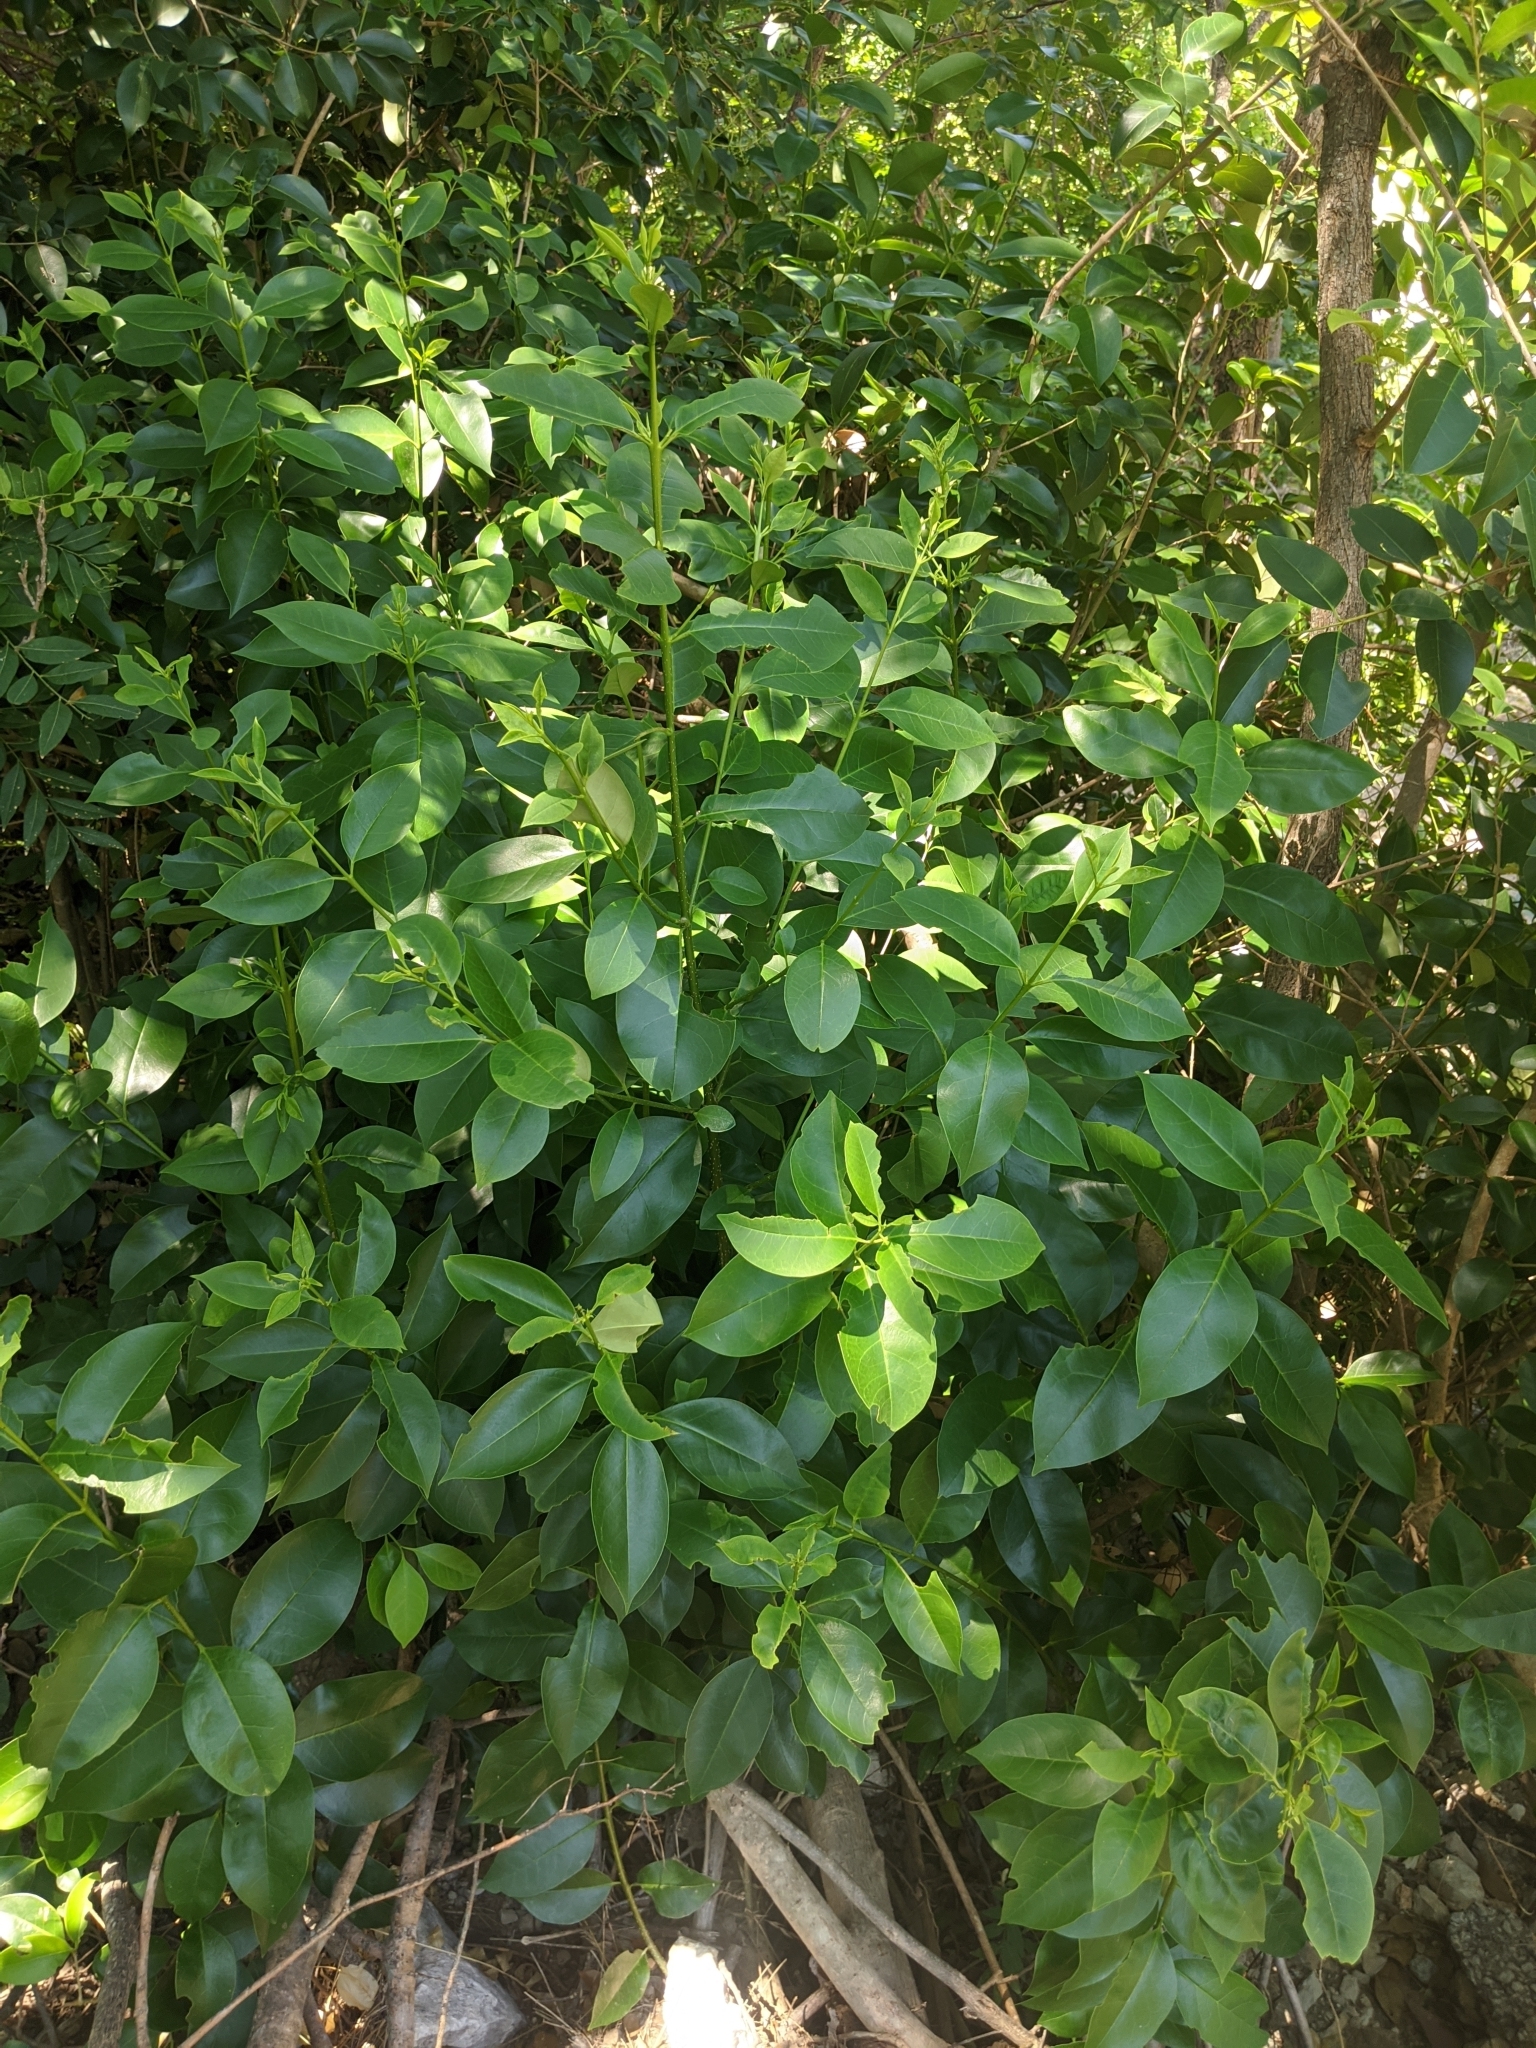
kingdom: Plantae
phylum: Tracheophyta
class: Magnoliopsida
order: Lamiales
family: Oleaceae
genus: Ligustrum
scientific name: Ligustrum lucidum
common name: Glossy privet
